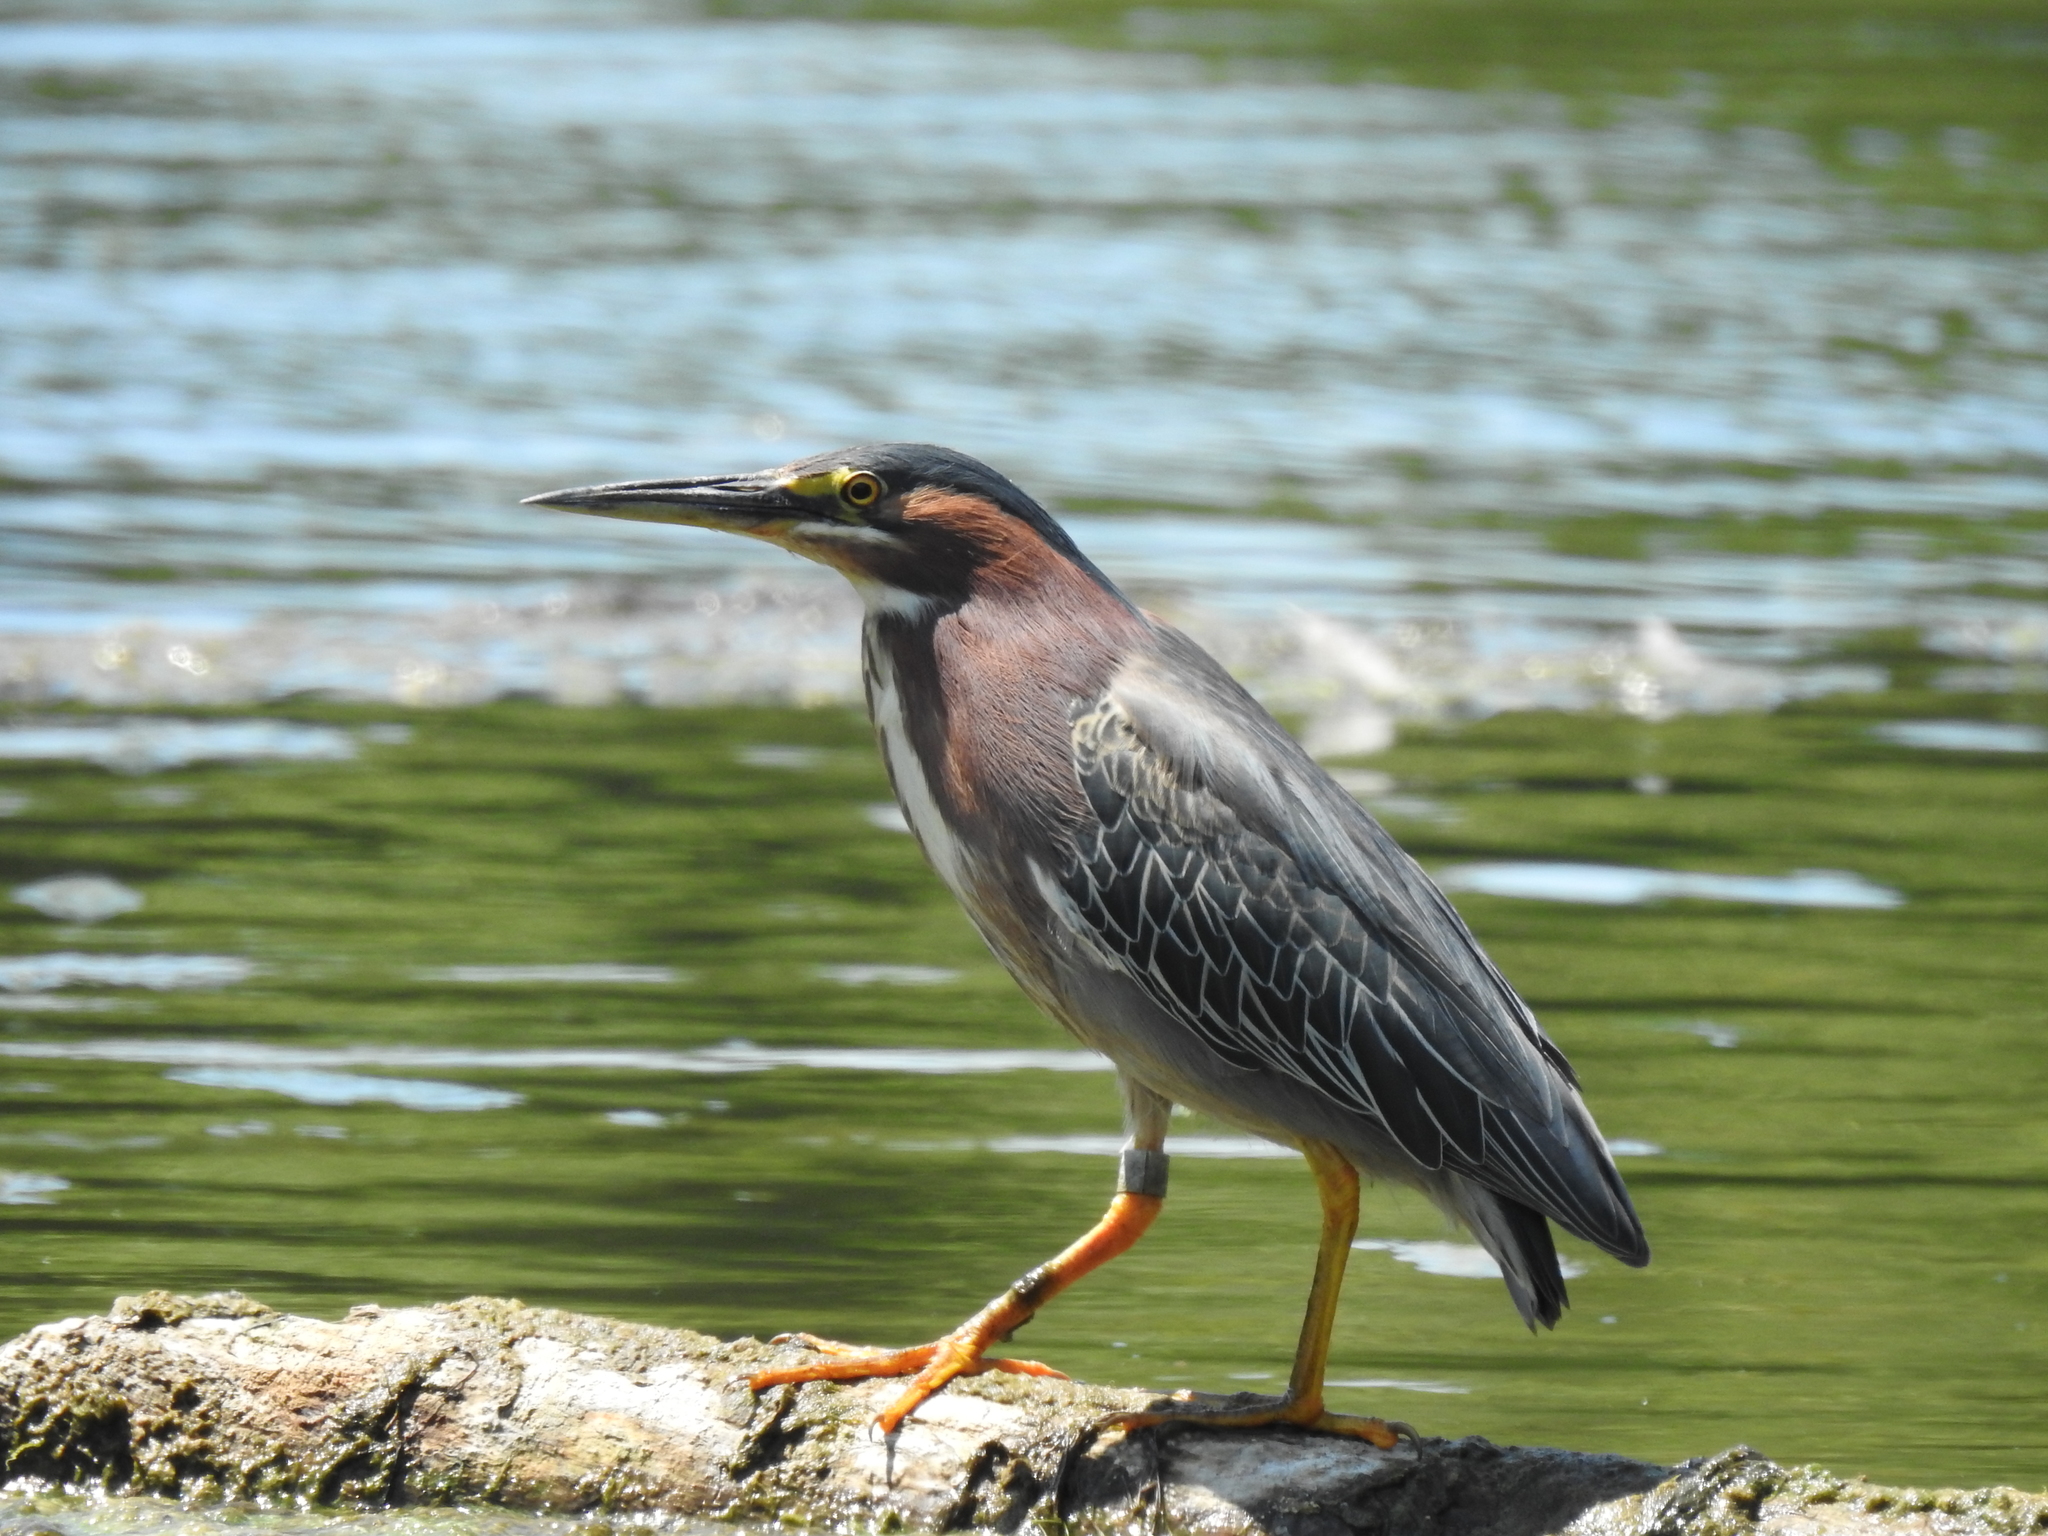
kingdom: Animalia
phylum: Chordata
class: Aves
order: Pelecaniformes
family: Ardeidae
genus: Butorides
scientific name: Butorides virescens
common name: Green heron
